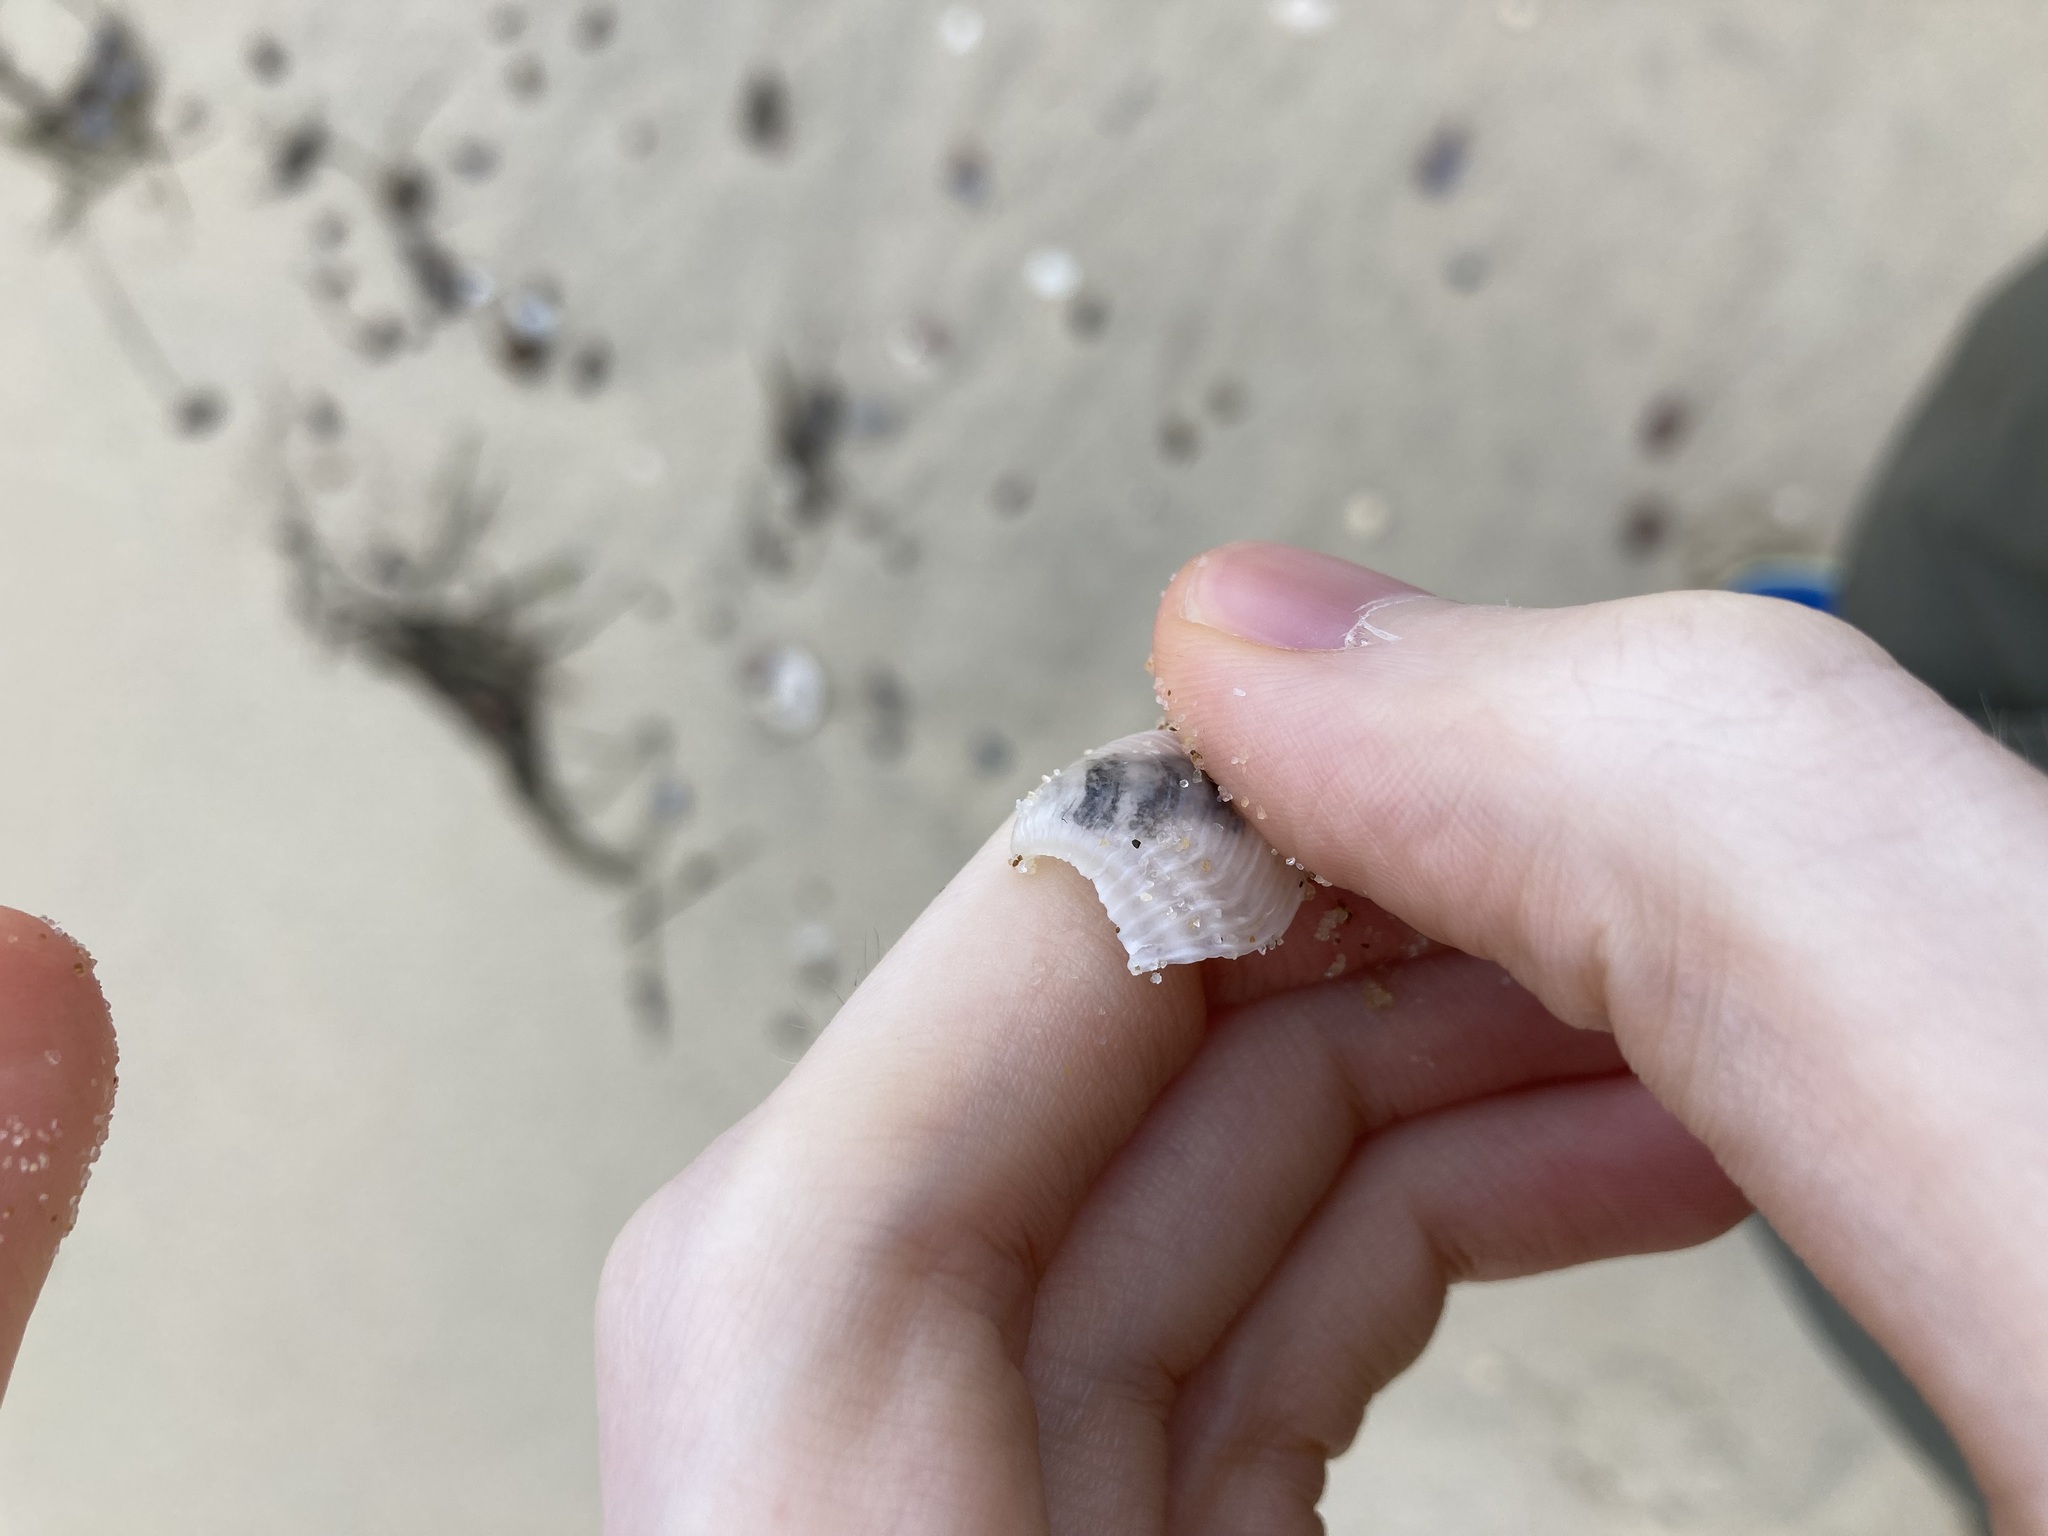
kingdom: Animalia
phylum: Mollusca
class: Bivalvia
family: Myochamidae
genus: Myadora
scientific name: Myadora brevis
